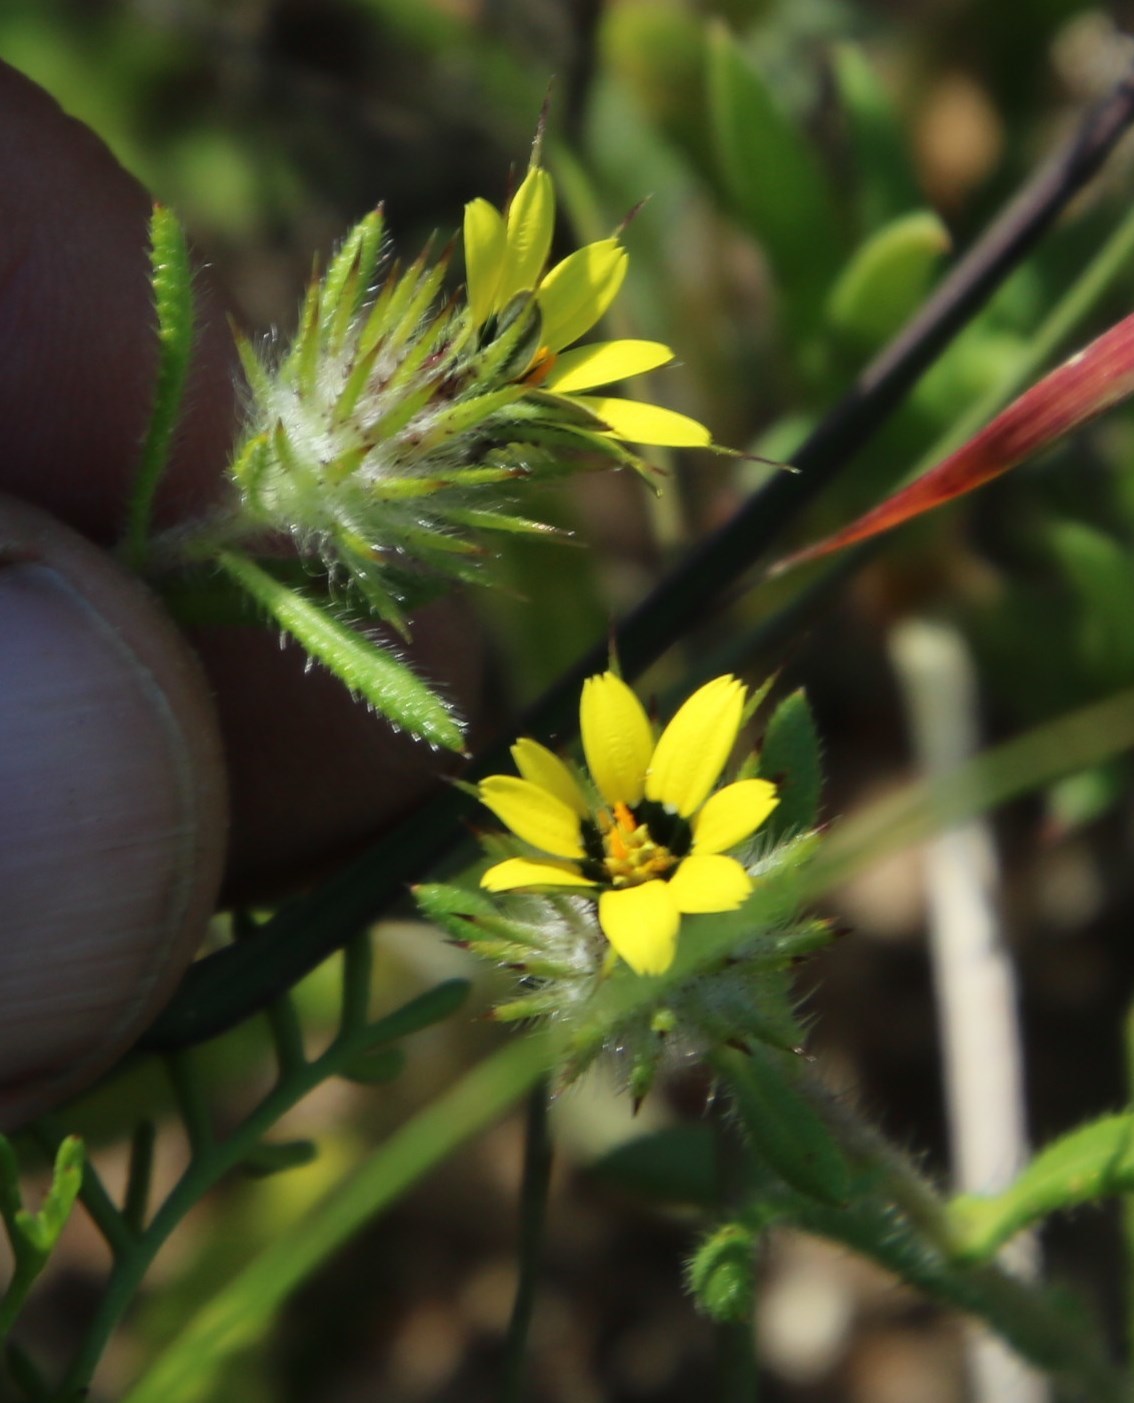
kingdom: Plantae
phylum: Tracheophyta
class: Magnoliopsida
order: Asterales
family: Asteraceae
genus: Gorteria
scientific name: Gorteria personata
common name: Gorteria
